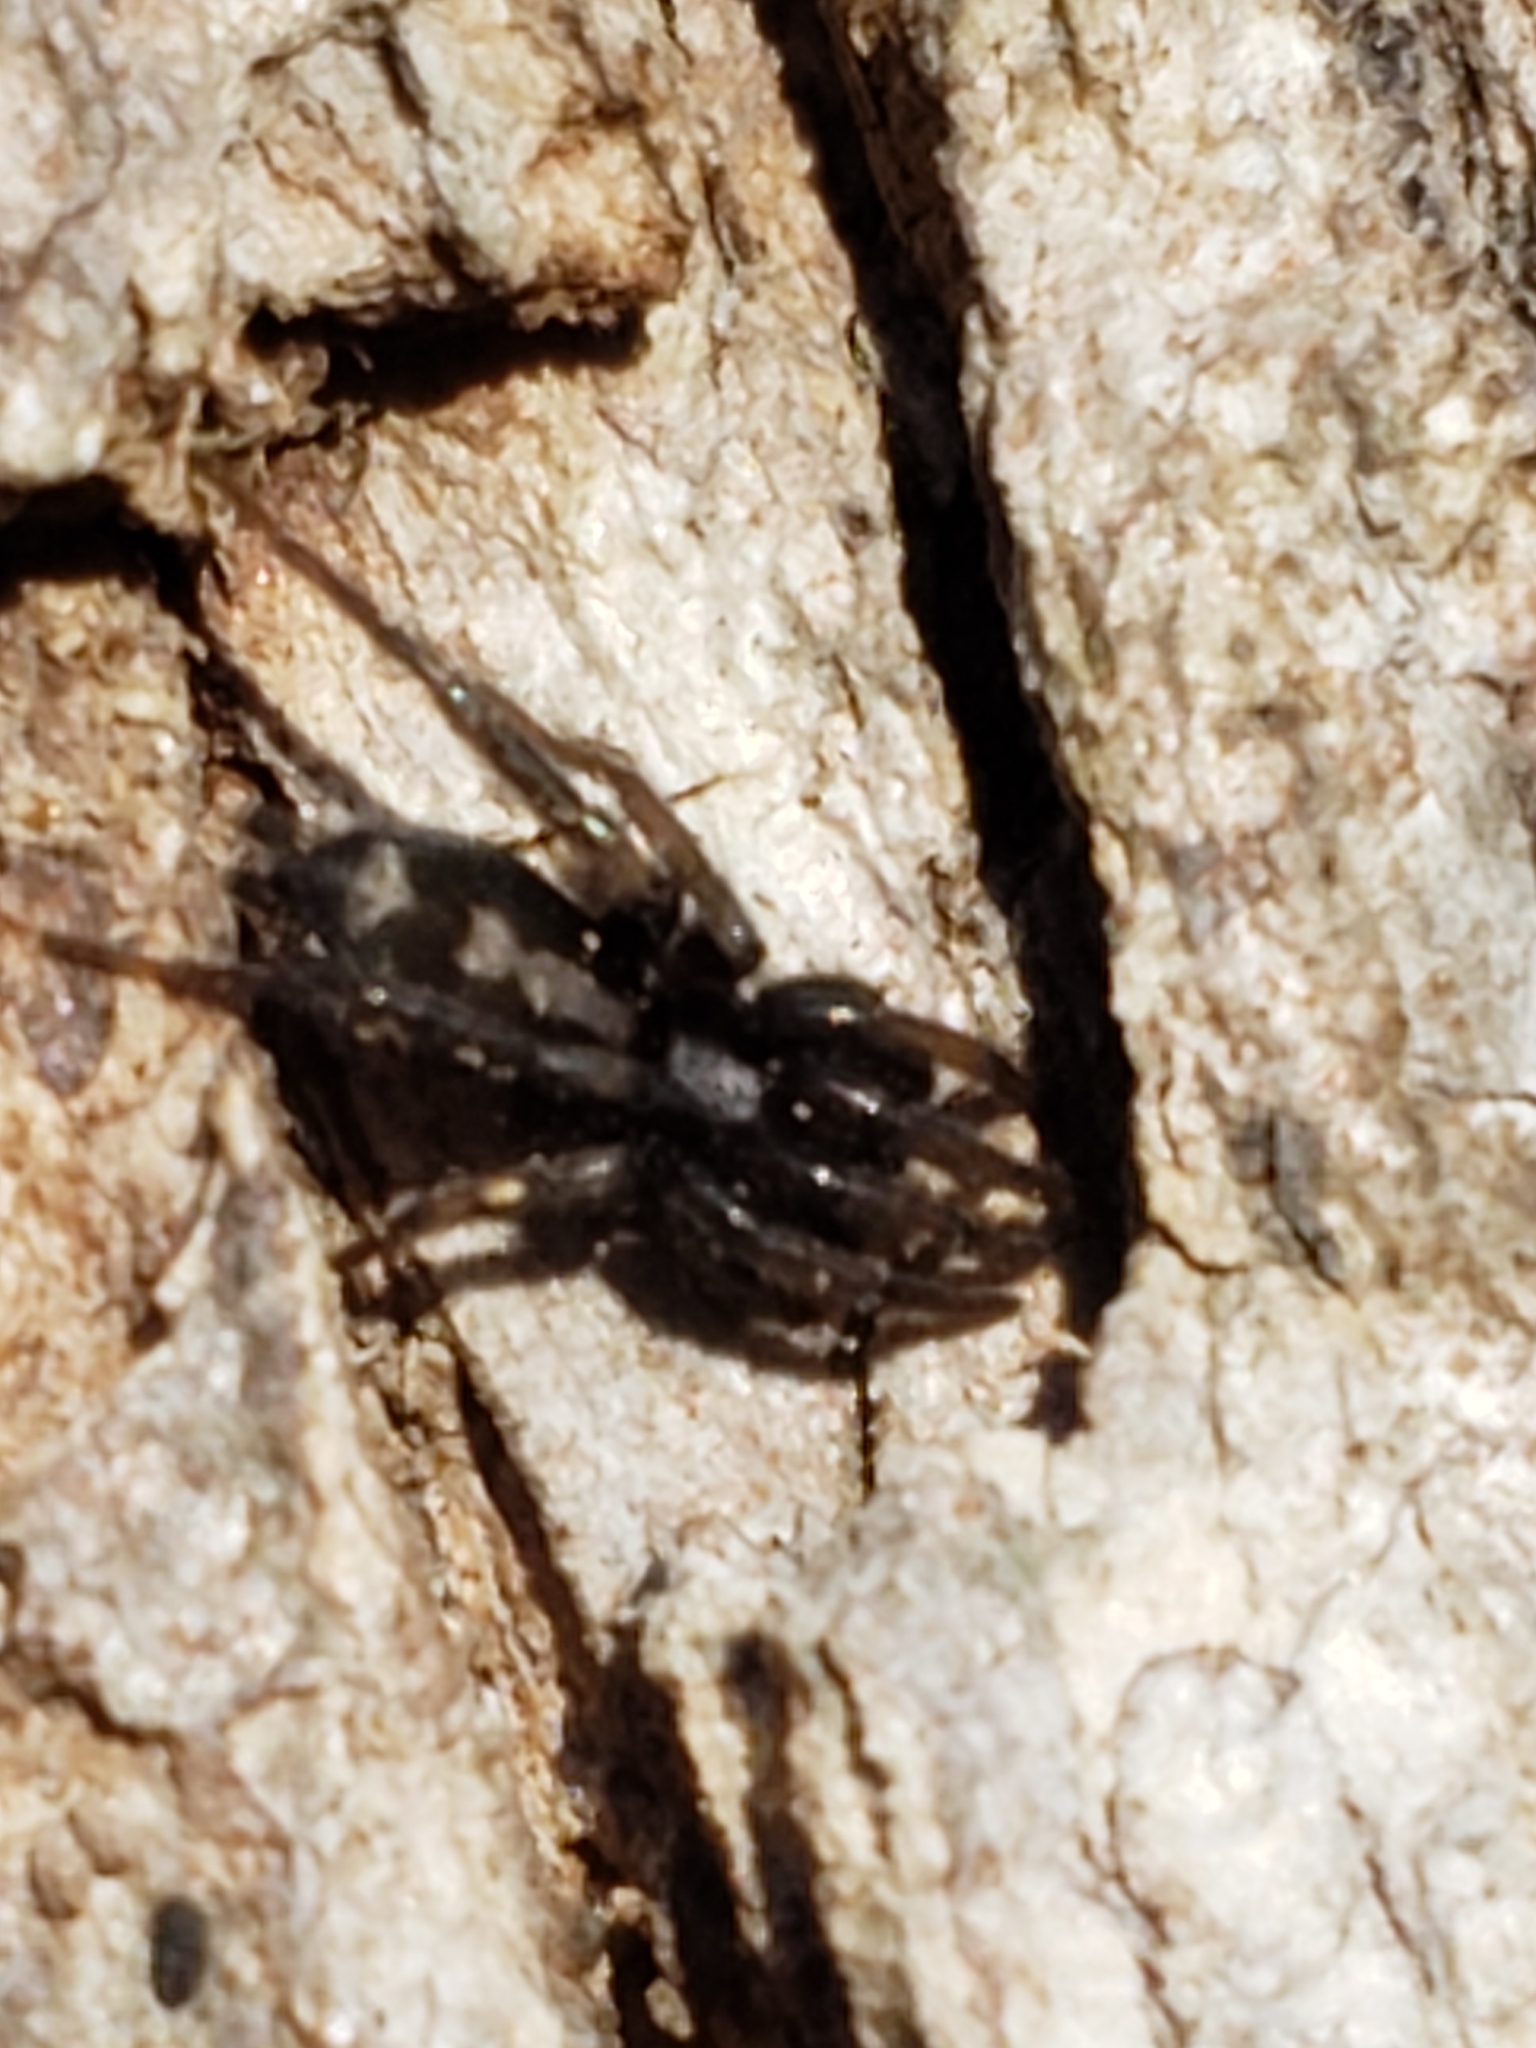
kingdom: Animalia
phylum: Arthropoda
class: Arachnida
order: Araneae
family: Gnaphosidae
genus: Herpyllus
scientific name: Herpyllus ecclesiasticus
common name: Eastern parson spider
